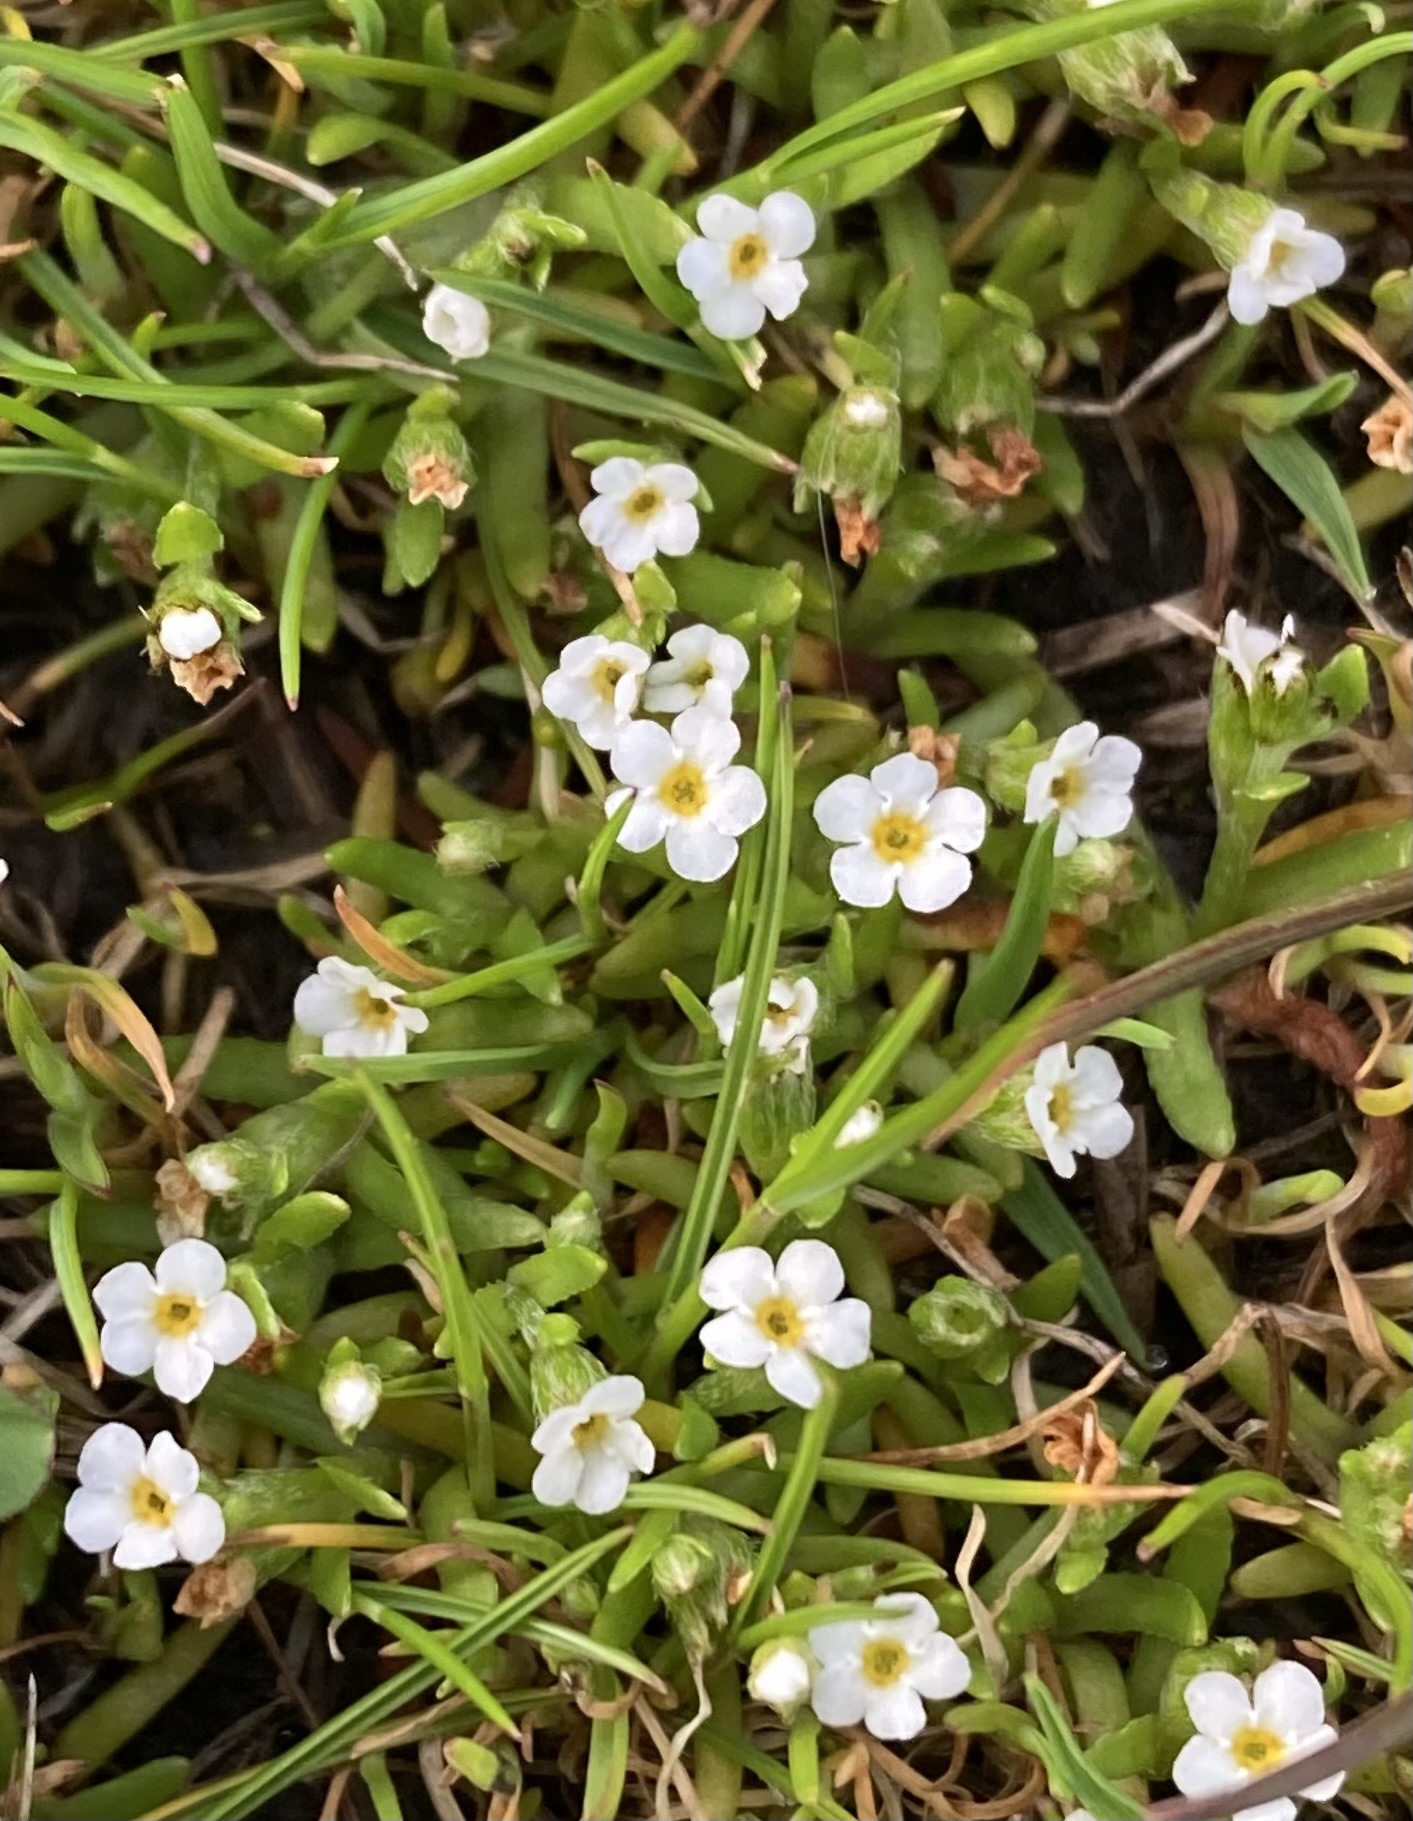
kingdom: Plantae
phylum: Tracheophyta
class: Magnoliopsida
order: Boraginales
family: Boraginaceae
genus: Plagiobothrys
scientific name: Plagiobothrys scouleri
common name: White forget-me-not
